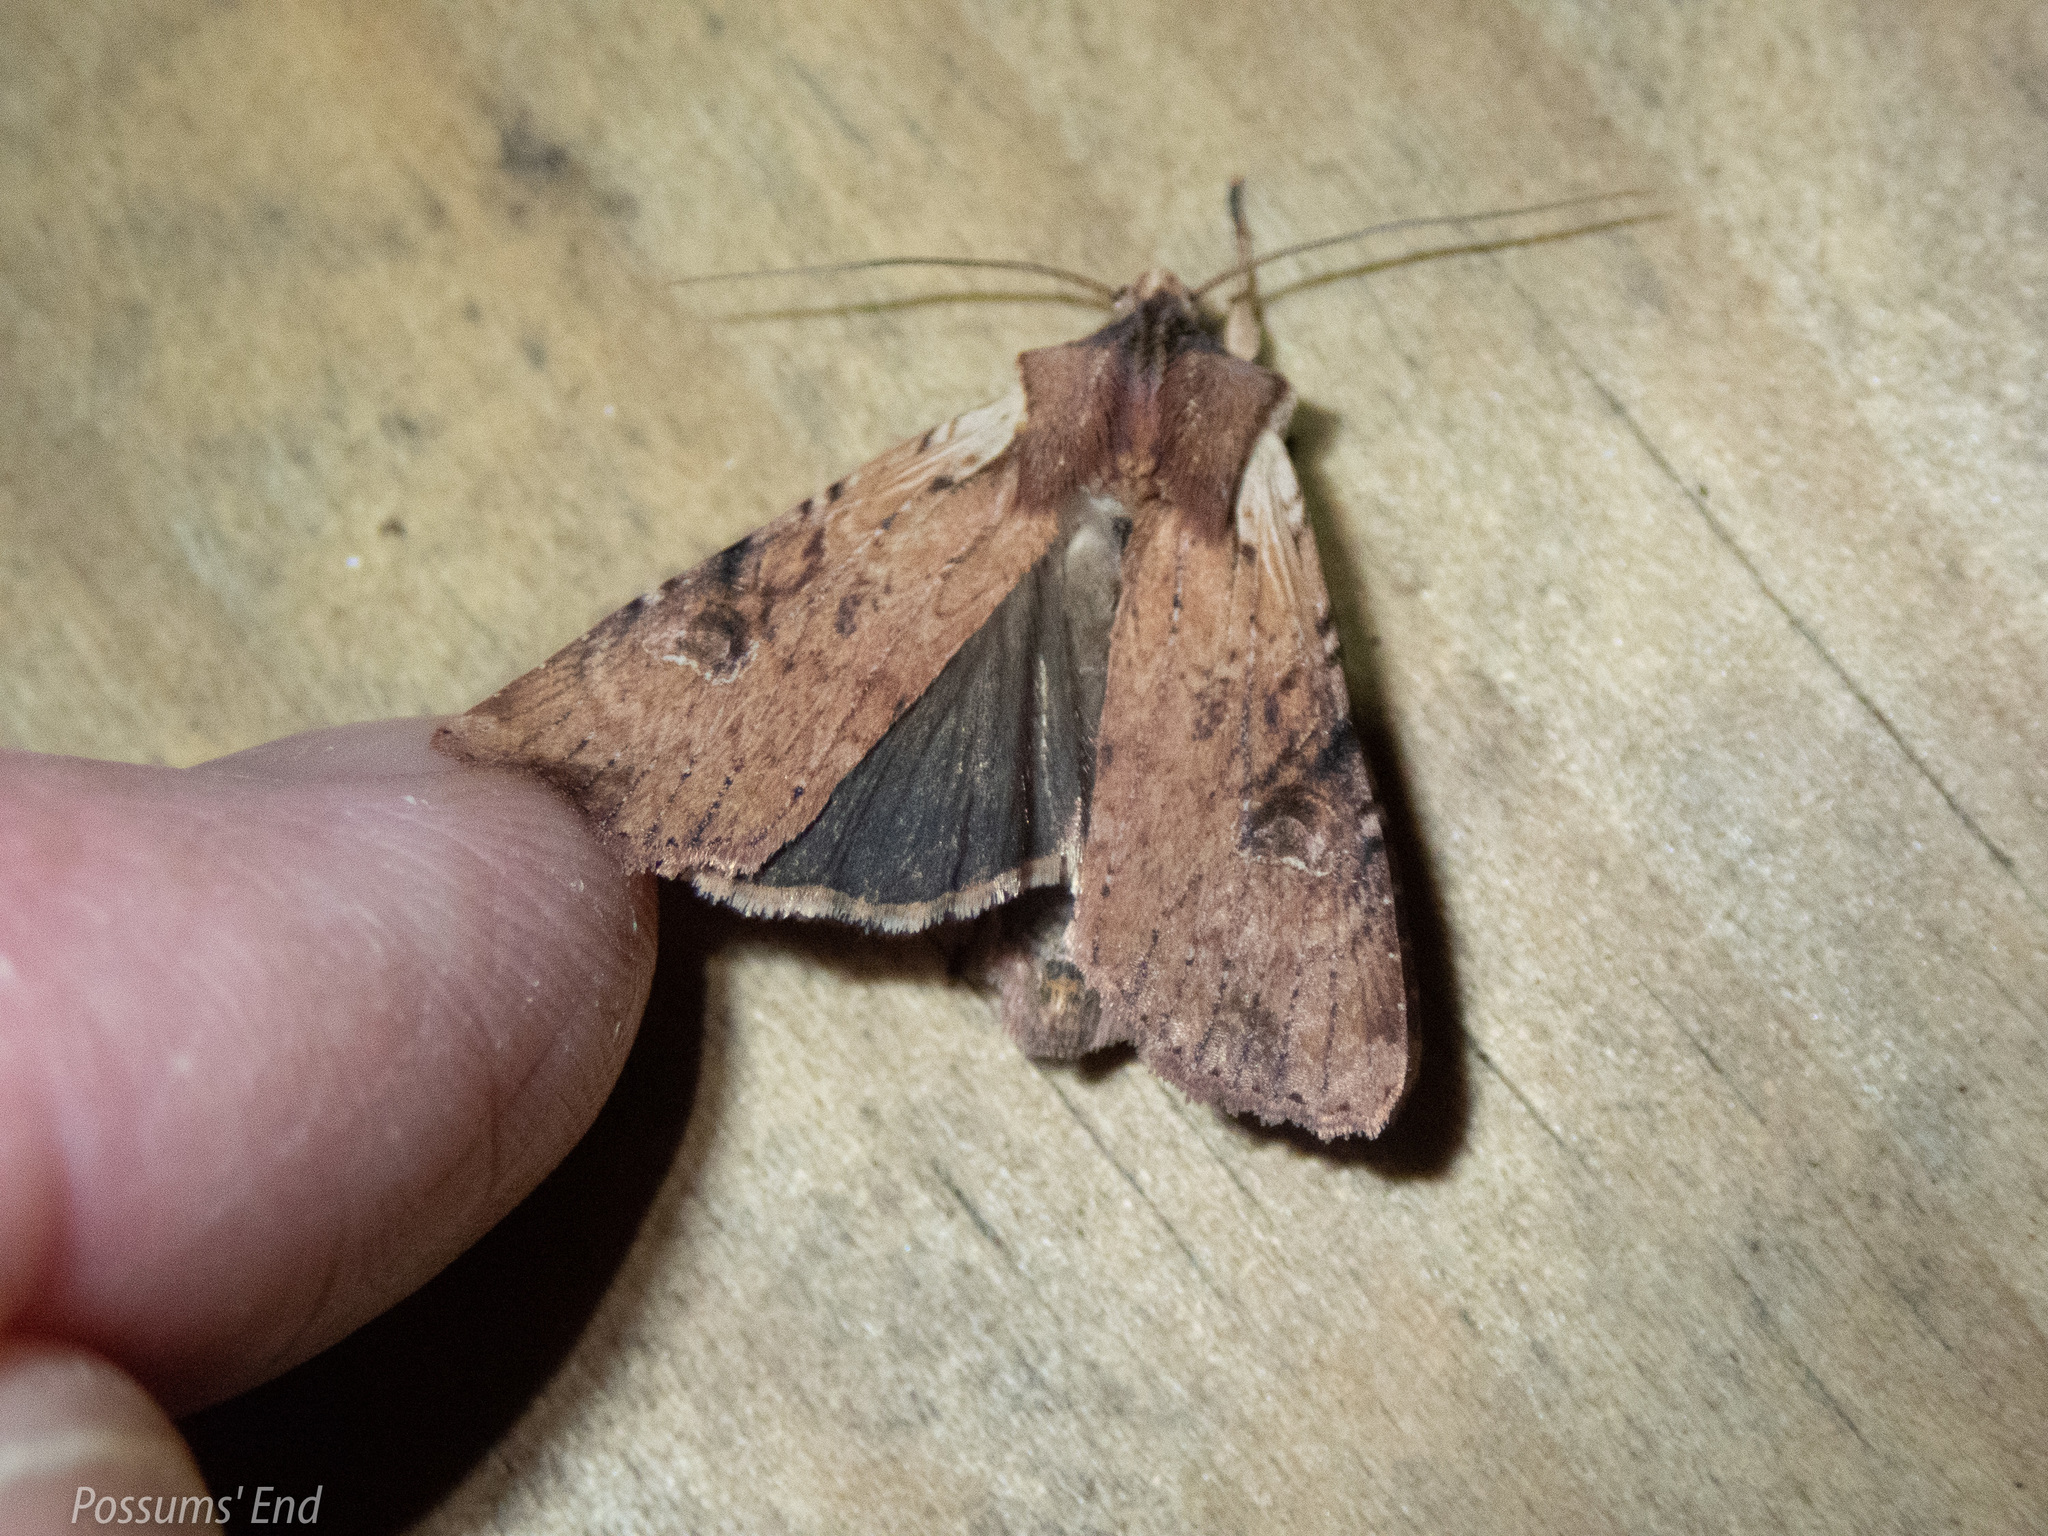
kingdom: Animalia
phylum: Arthropoda
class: Insecta
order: Lepidoptera
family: Noctuidae
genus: Ichneutica
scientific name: Ichneutica omoplaca
